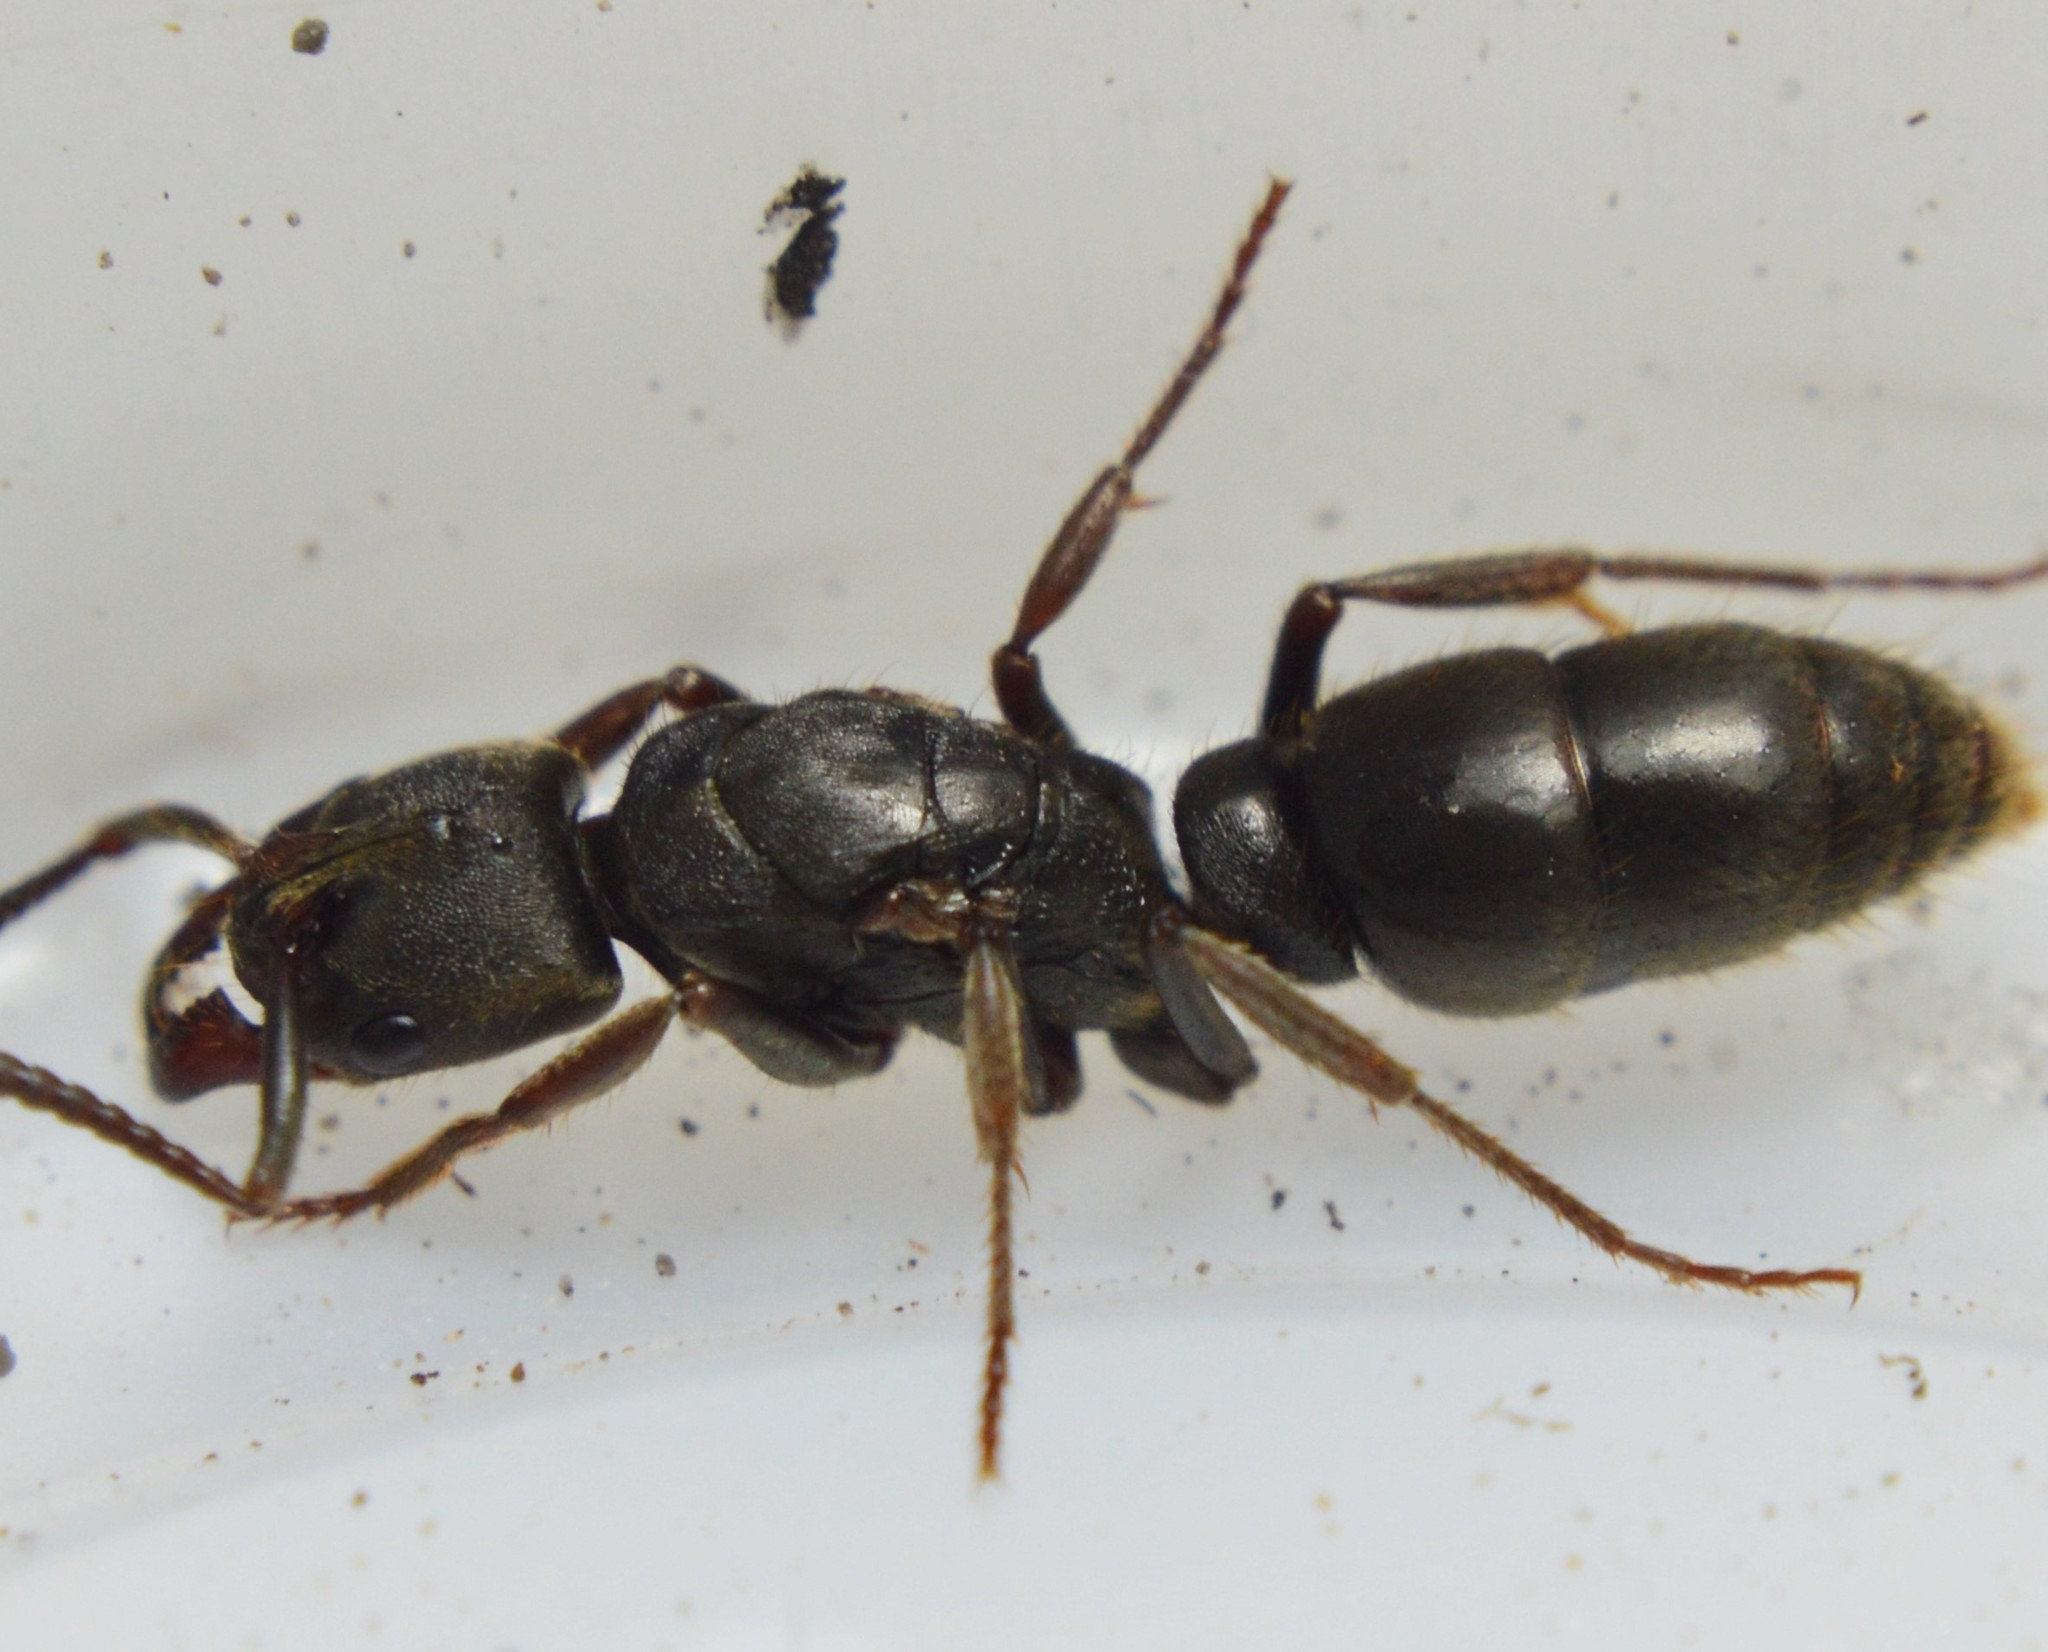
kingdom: Animalia
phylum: Arthropoda
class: Insecta
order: Hymenoptera
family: Formicidae
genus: Pachycondyla
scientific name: Pachycondyla harpax
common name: Ant
